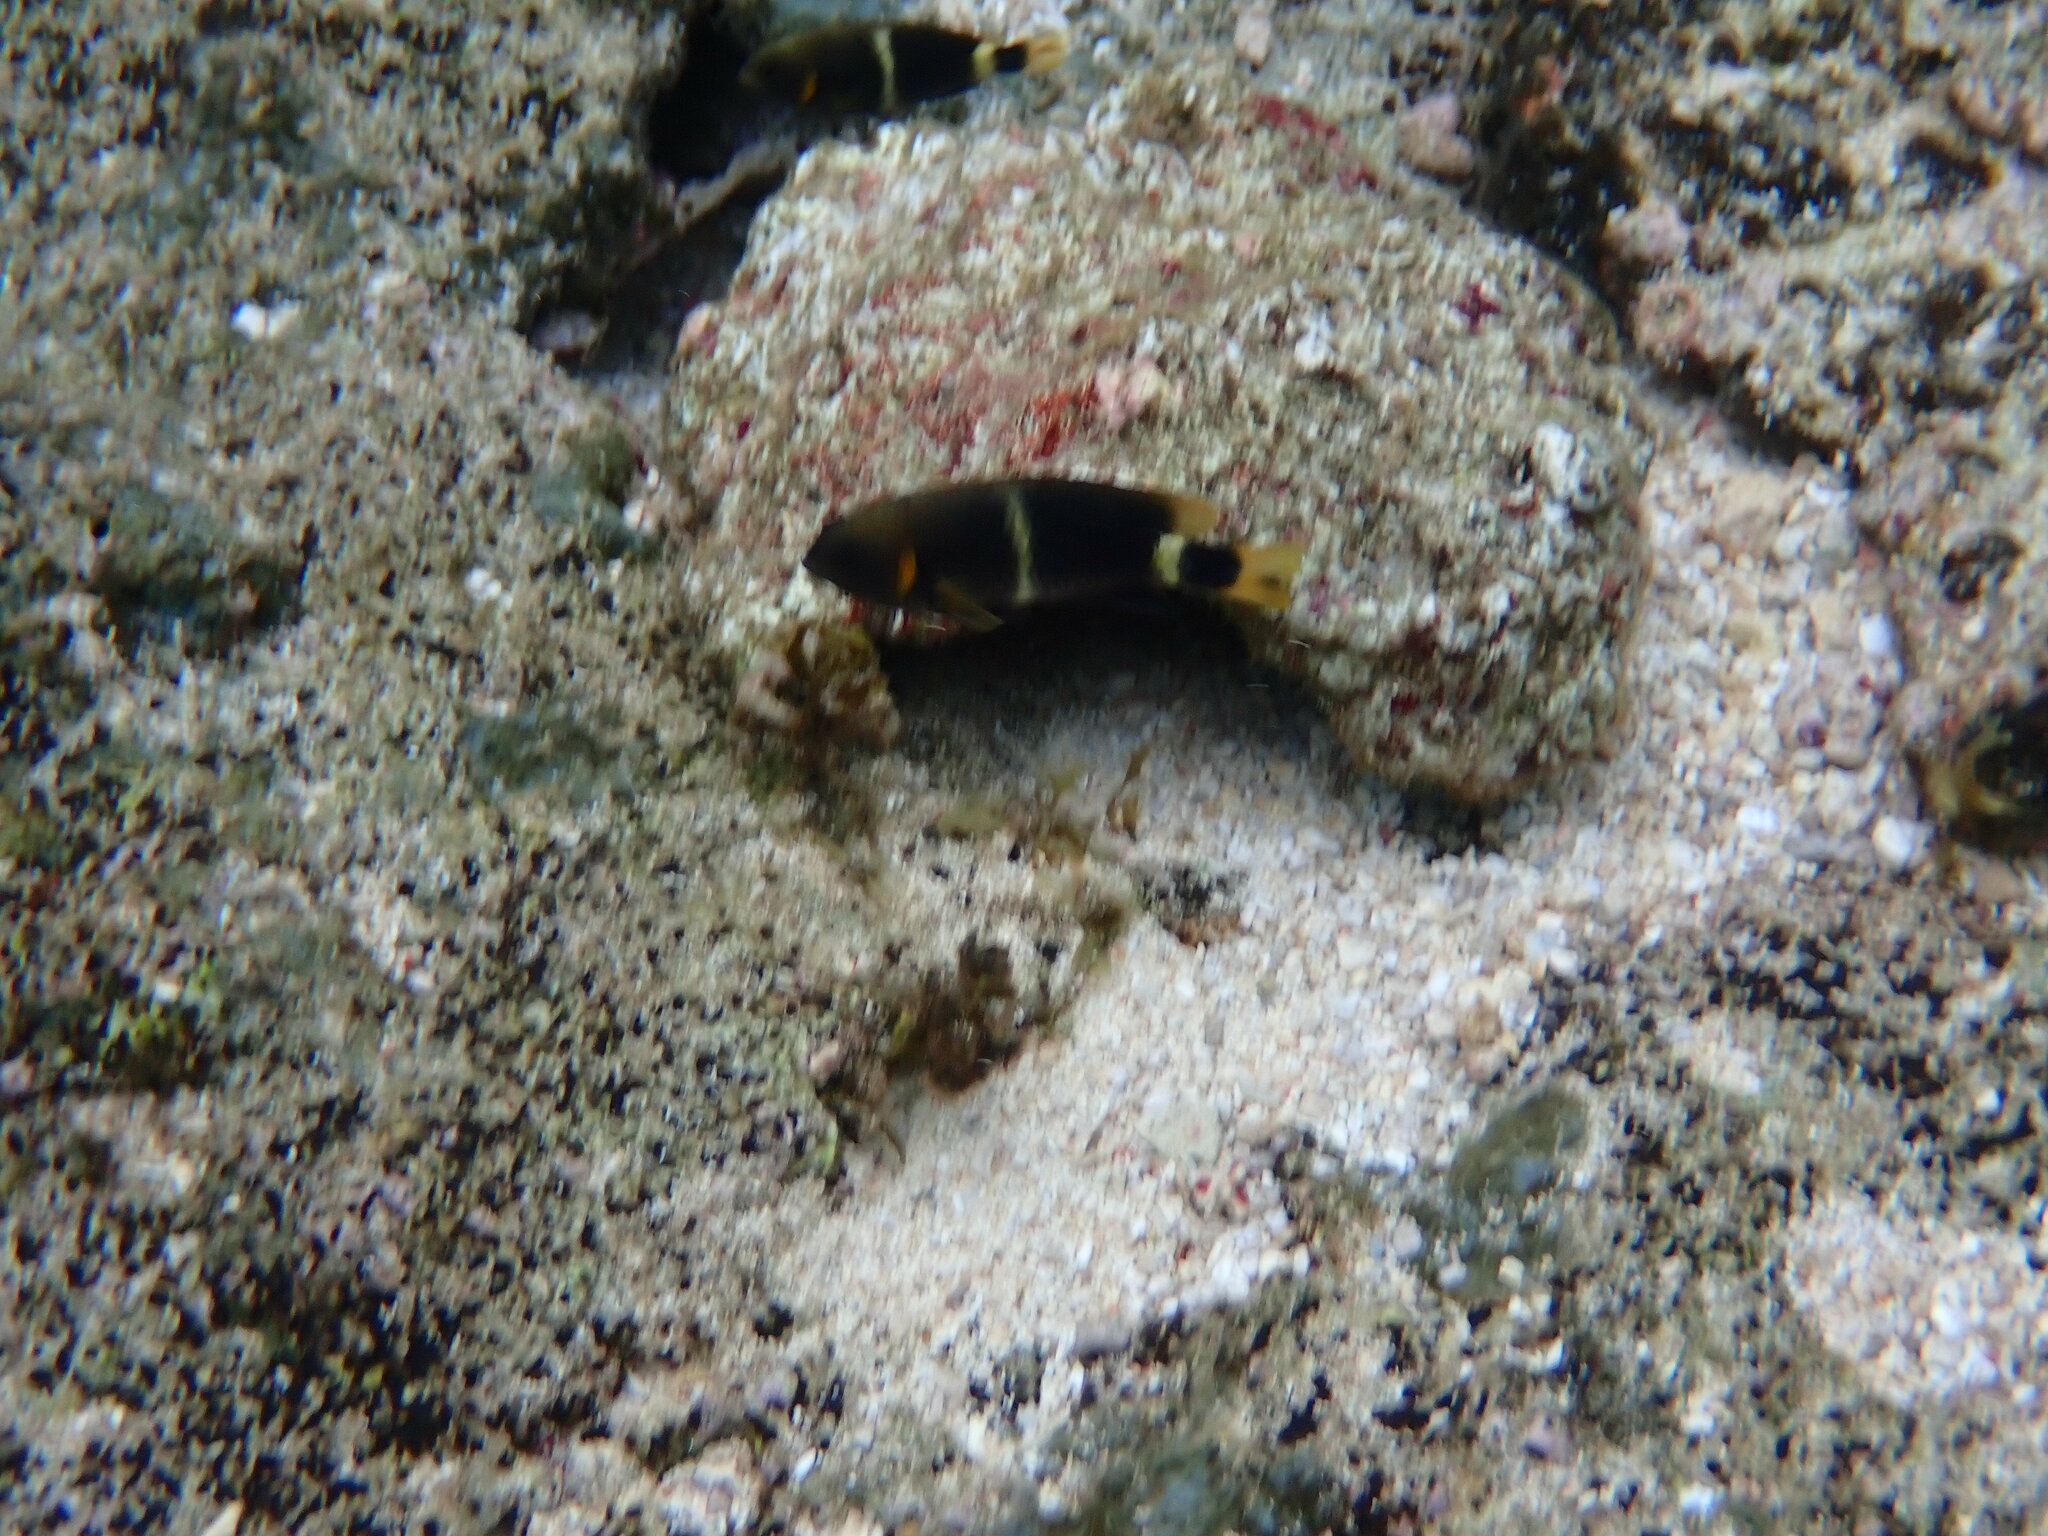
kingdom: Animalia
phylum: Chordata
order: Perciformes
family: Pomacentridae
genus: Chrysiptera
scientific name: Chrysiptera brownriggii
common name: Surge demoiselle
